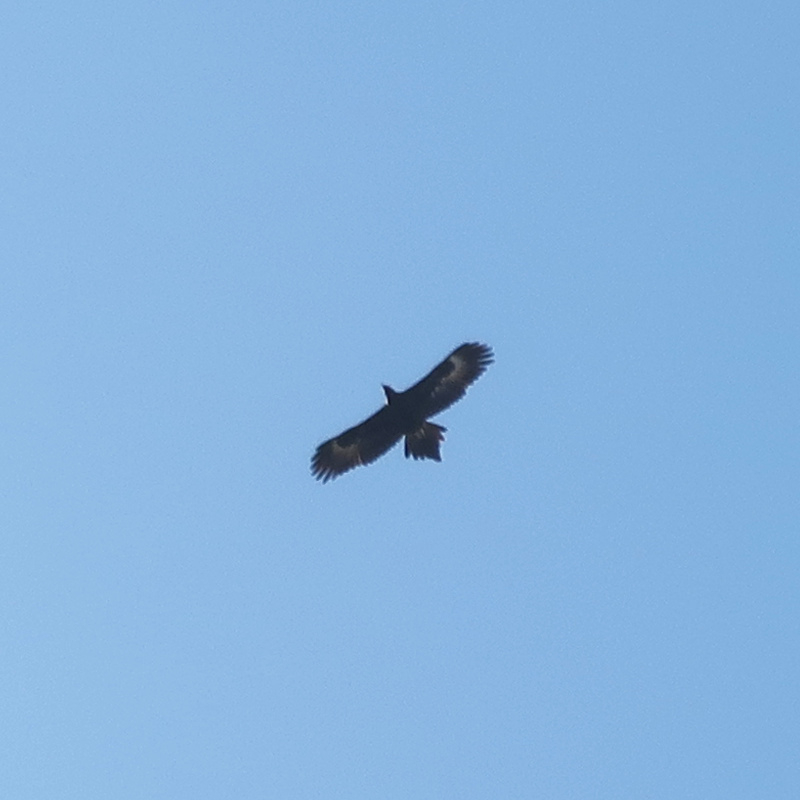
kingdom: Animalia
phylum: Chordata
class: Aves
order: Accipitriformes
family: Accipitridae
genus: Aquila
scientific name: Aquila audax
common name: Wedge-tailed eagle
